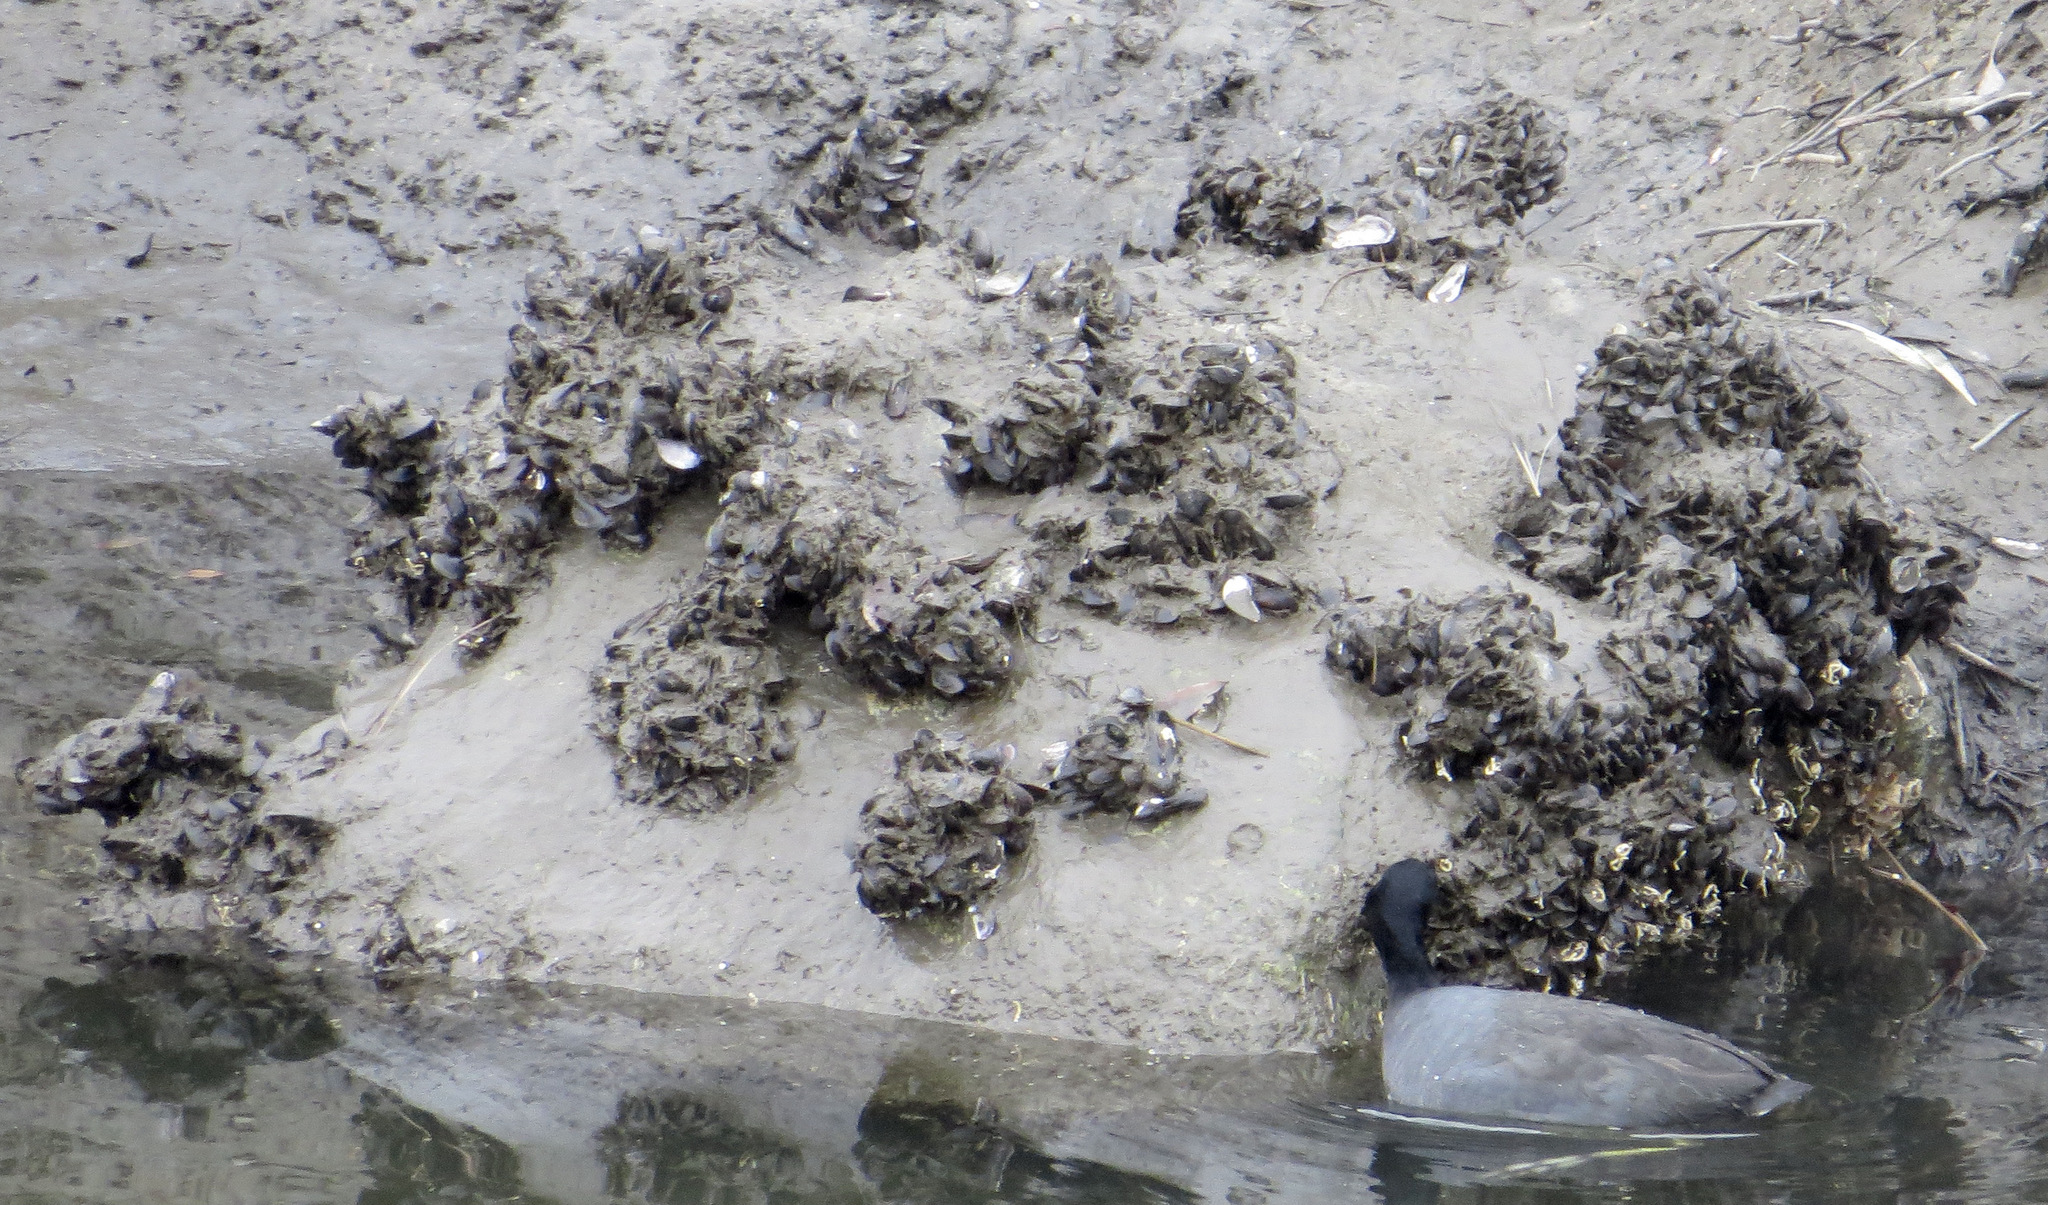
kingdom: Animalia
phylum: Mollusca
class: Bivalvia
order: Mytilida
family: Mytilidae
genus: Geukensia
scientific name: Geukensia demissa
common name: Ribbed mussel
